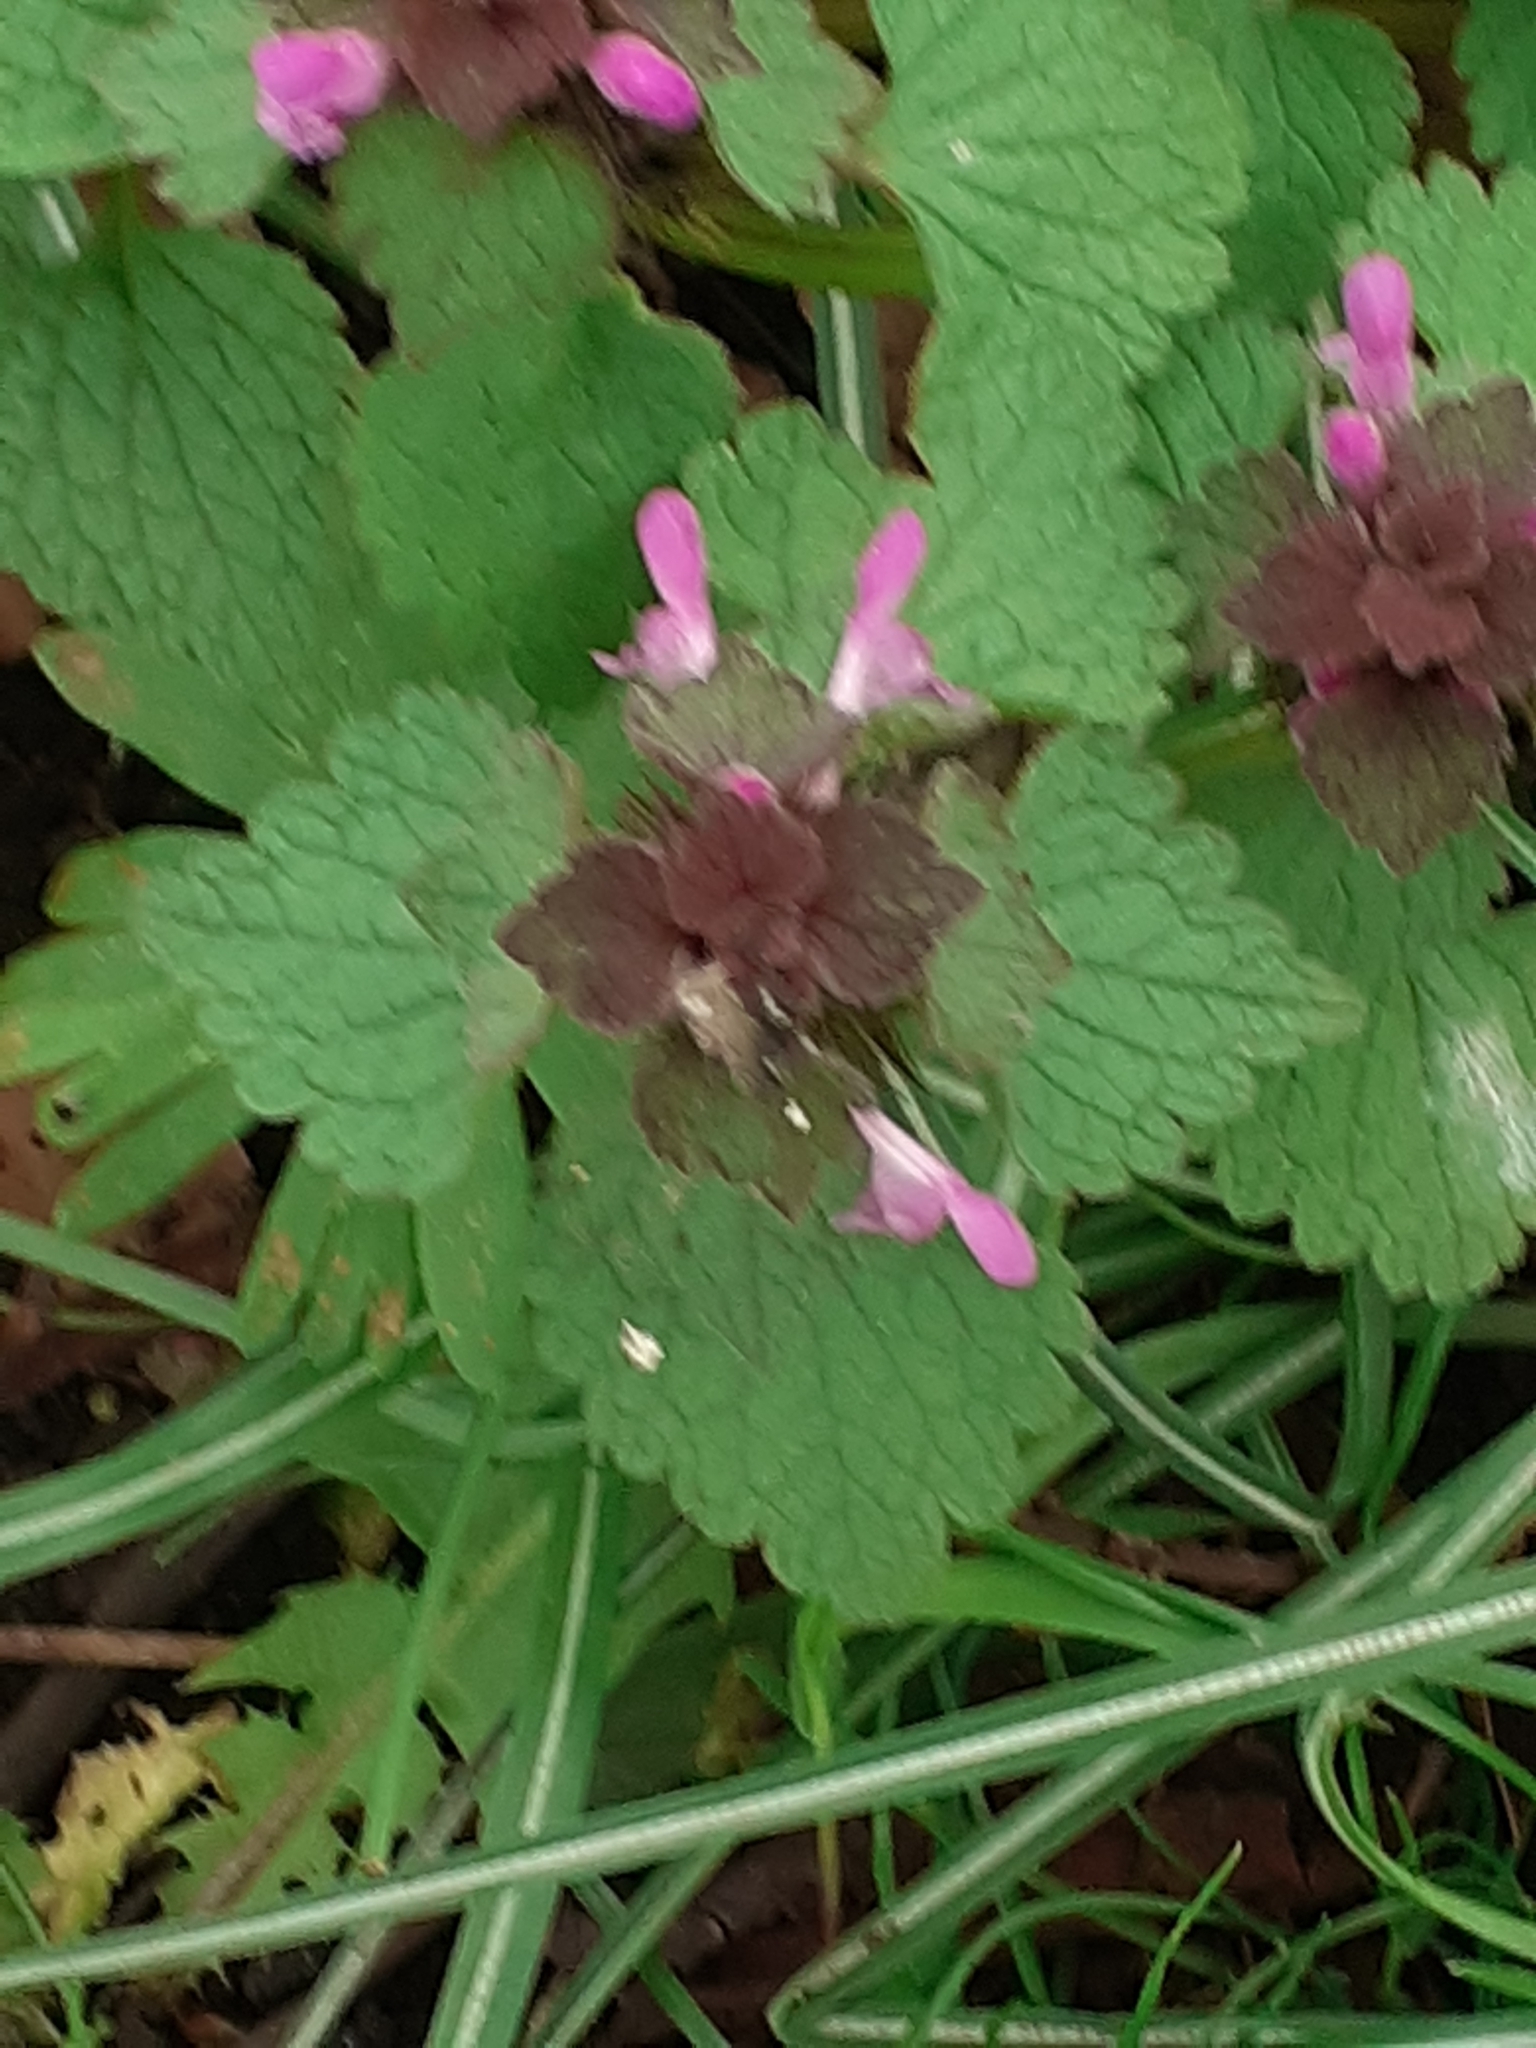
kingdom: Plantae
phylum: Tracheophyta
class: Magnoliopsida
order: Lamiales
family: Lamiaceae
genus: Lamium
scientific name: Lamium purpureum
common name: Red dead-nettle
